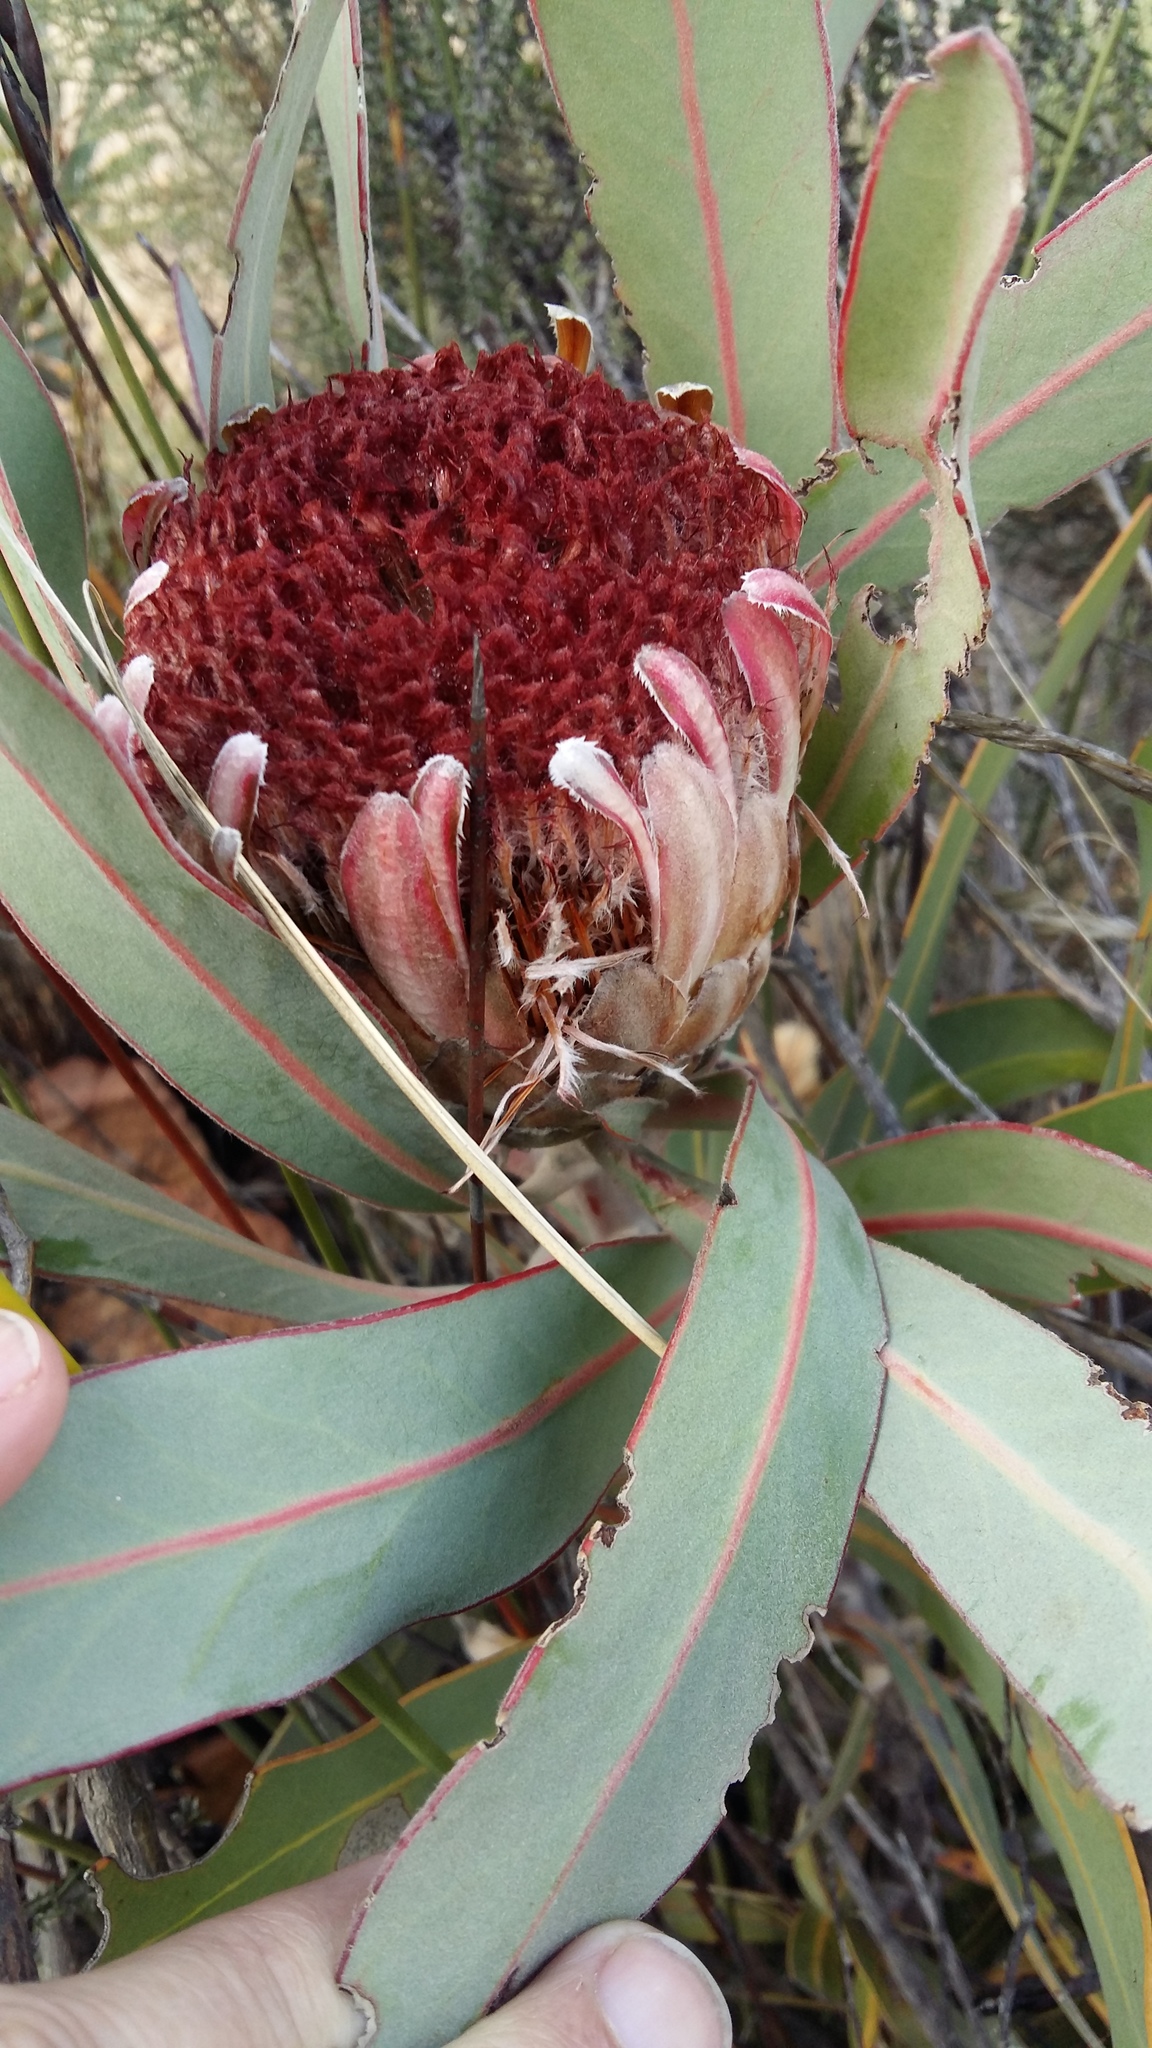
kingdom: Plantae
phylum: Tracheophyta
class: Magnoliopsida
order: Proteales
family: Proteaceae
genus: Protea
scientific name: Protea lorifolia
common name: Strap-leaved protea
